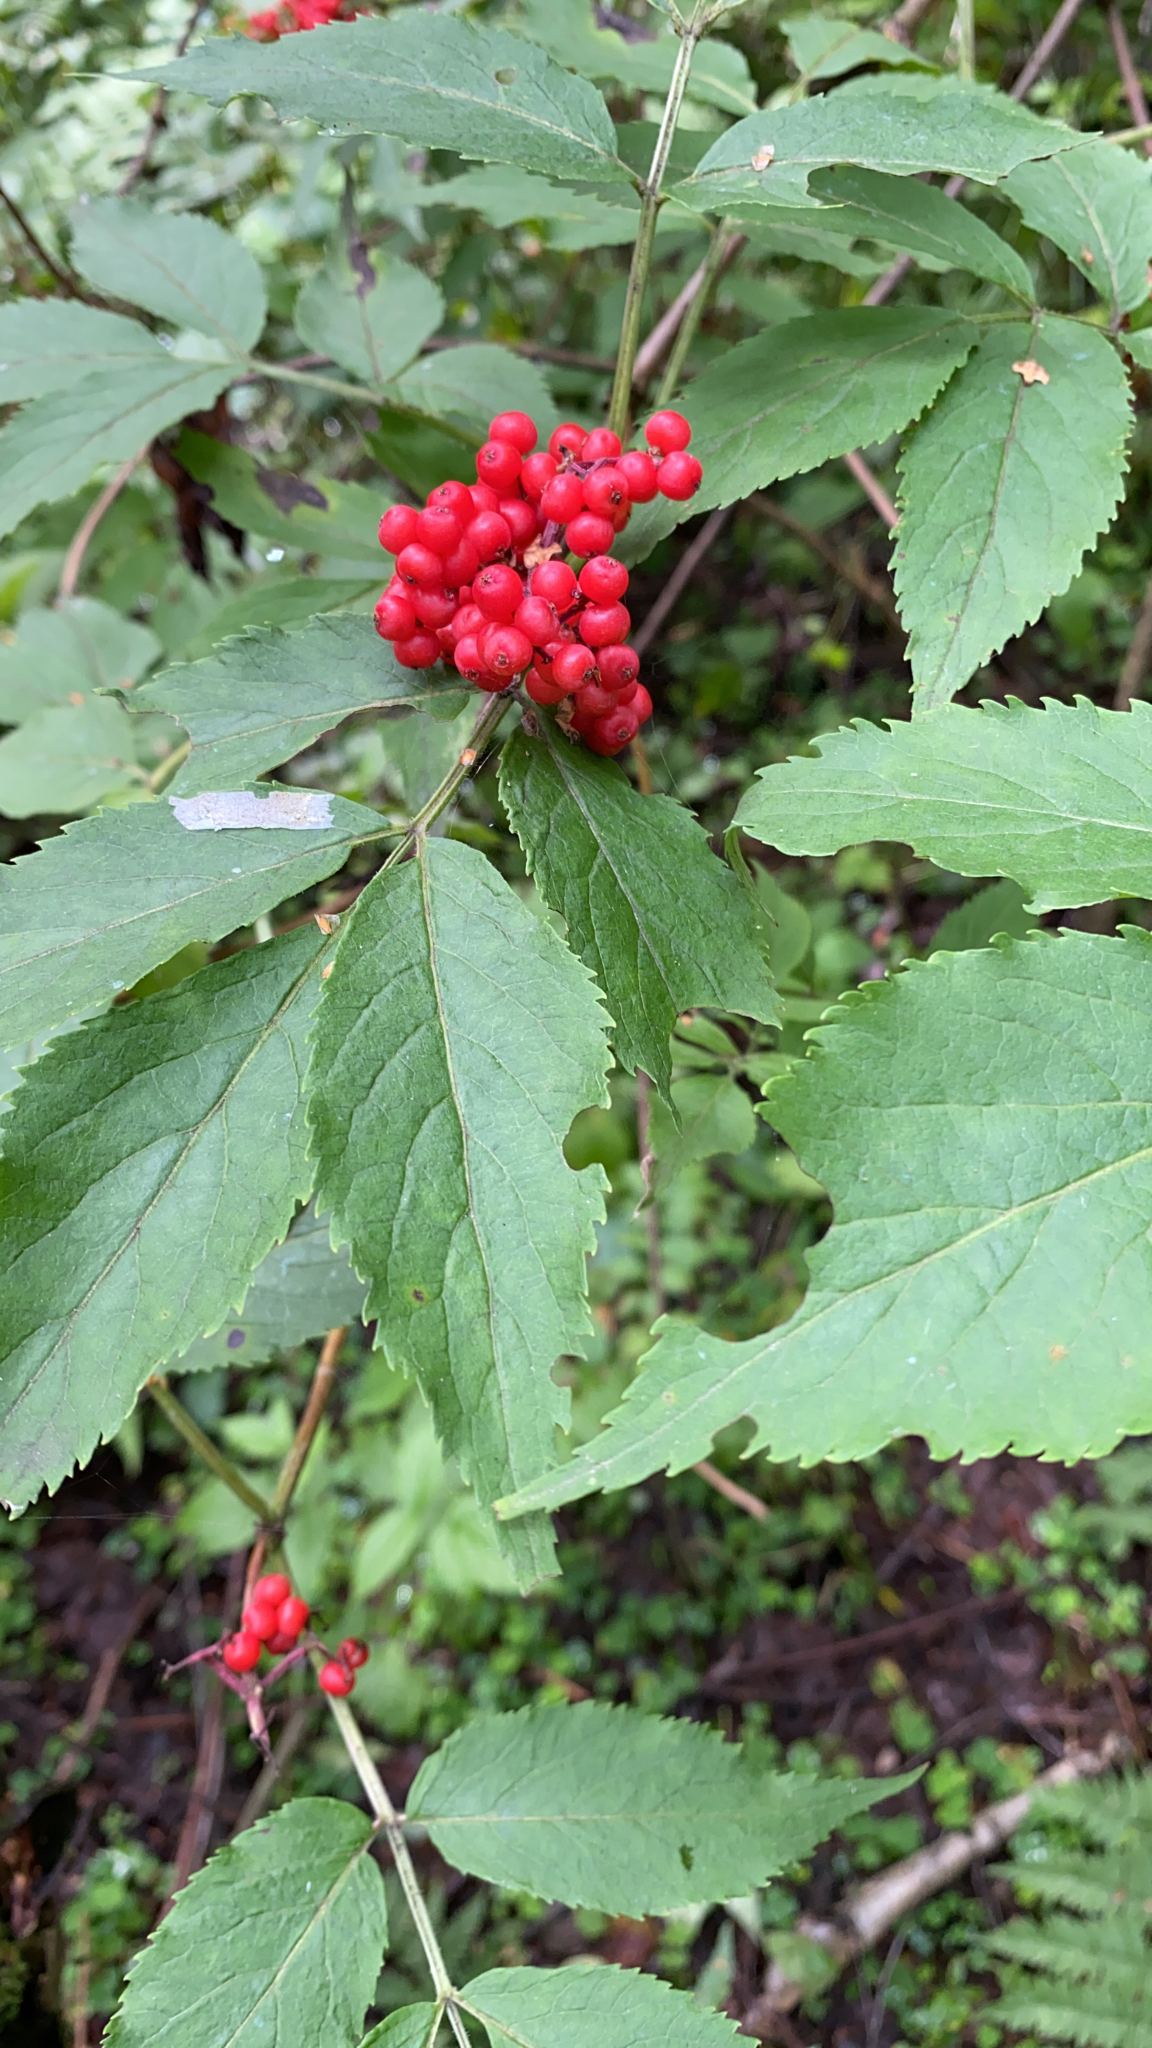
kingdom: Plantae
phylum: Tracheophyta
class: Magnoliopsida
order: Dipsacales
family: Viburnaceae
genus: Sambucus
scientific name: Sambucus racemosa
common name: Red-berried elder
